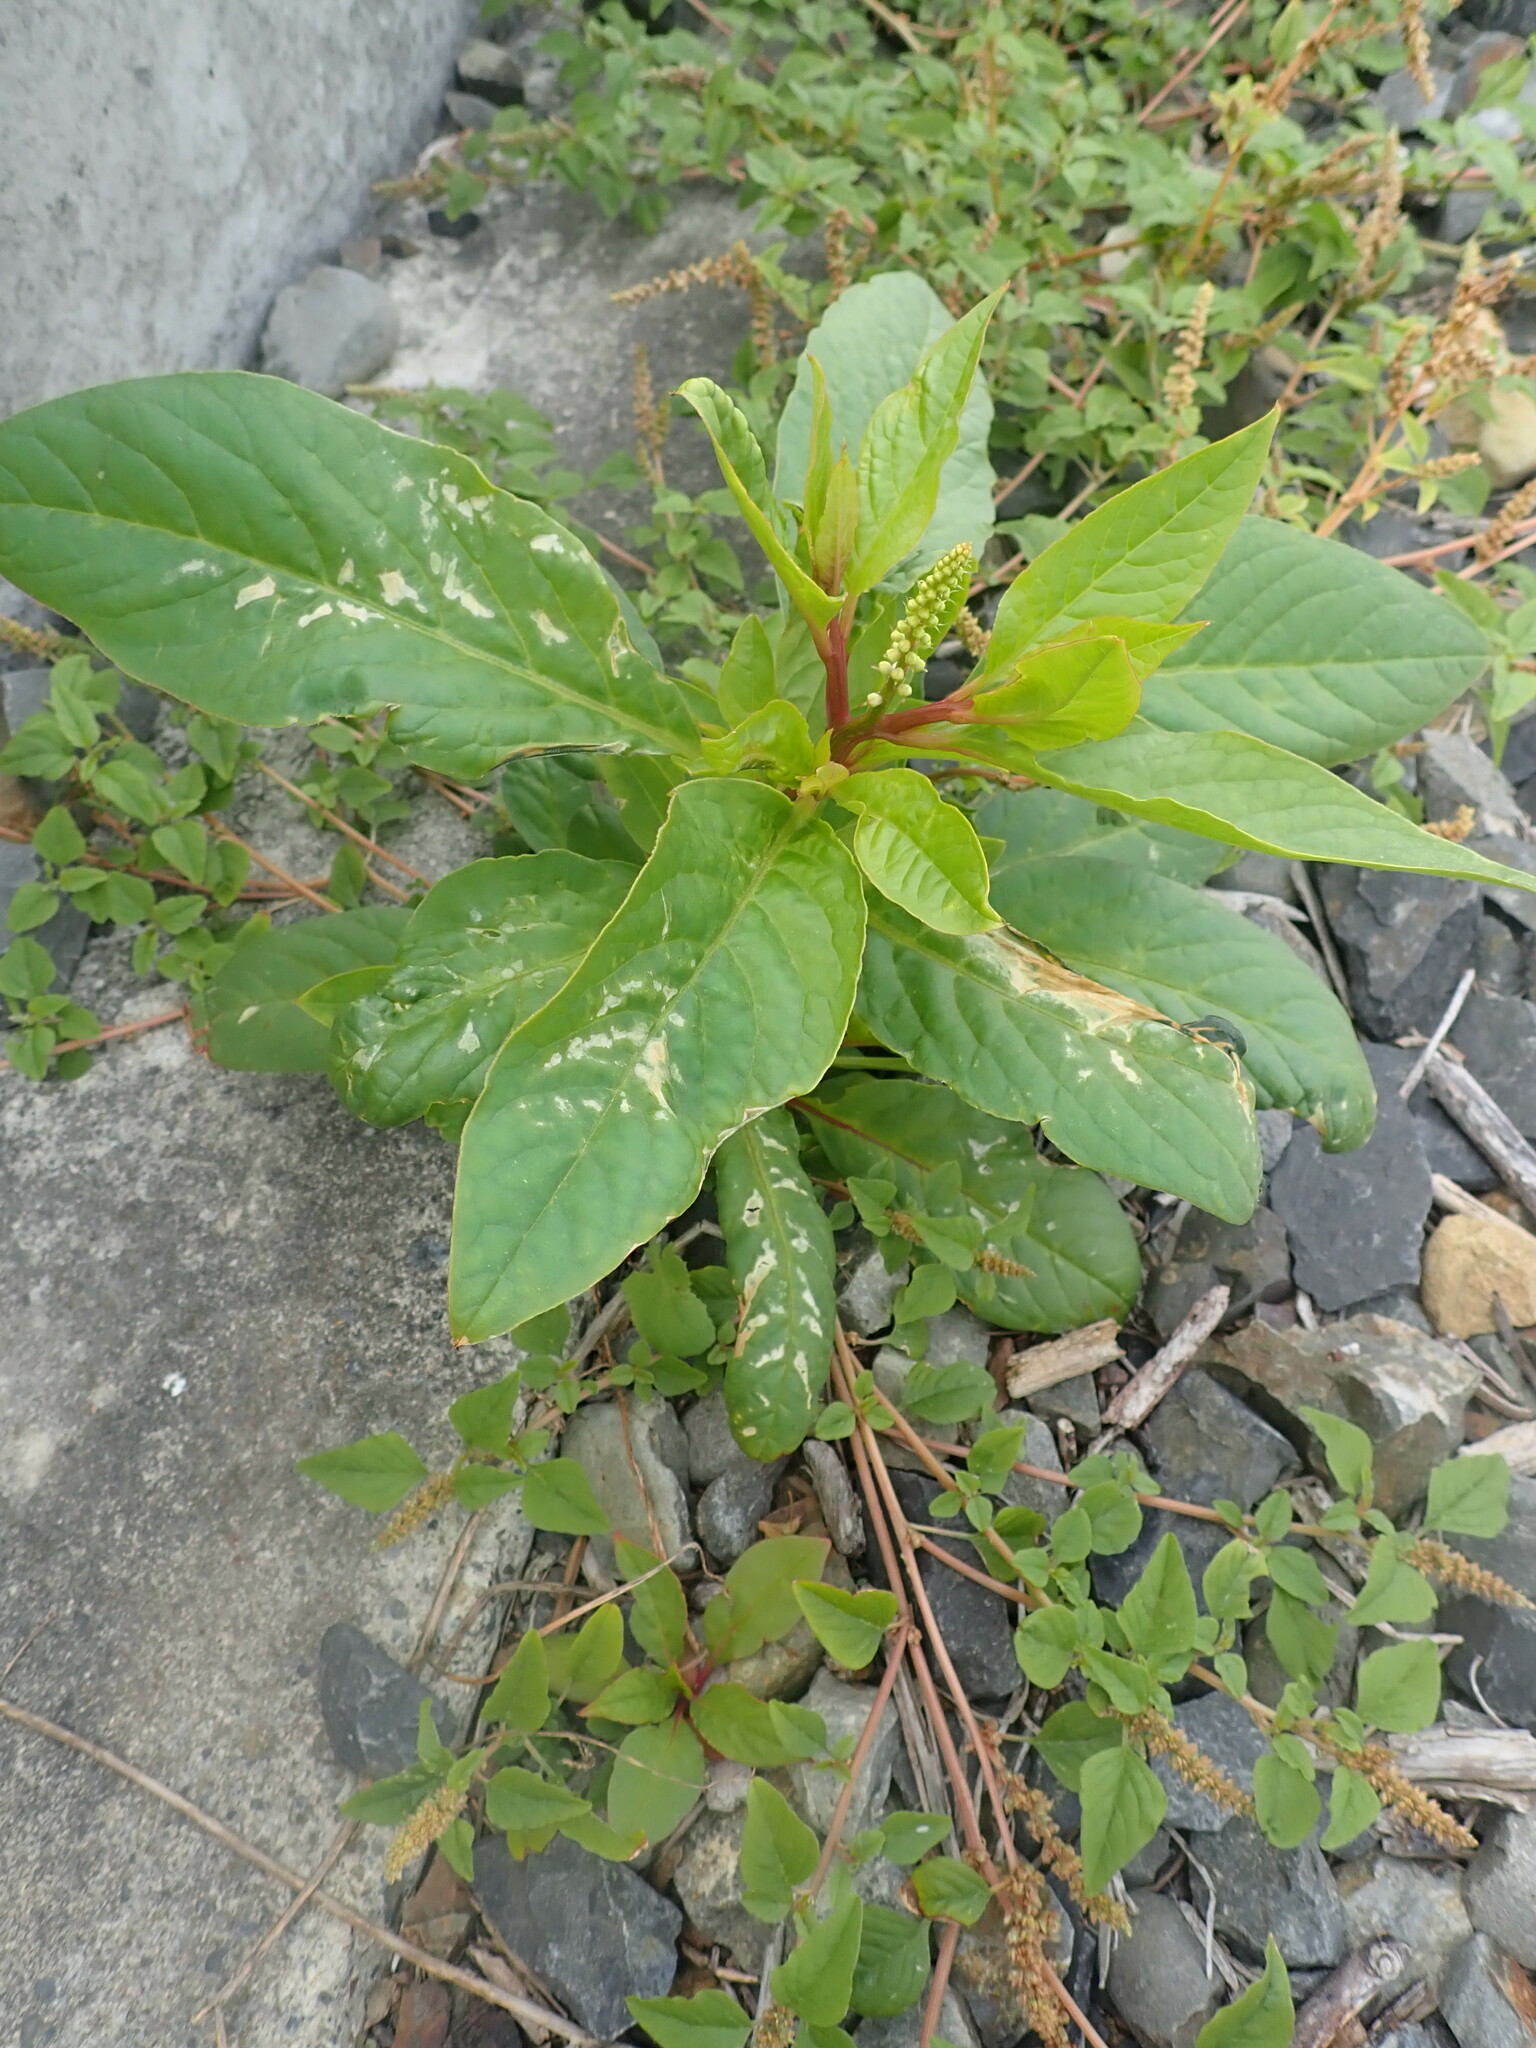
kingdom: Plantae
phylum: Tracheophyta
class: Magnoliopsida
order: Caryophyllales
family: Phytolaccaceae
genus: Phytolacca
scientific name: Phytolacca icosandra
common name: Button pokeweed
